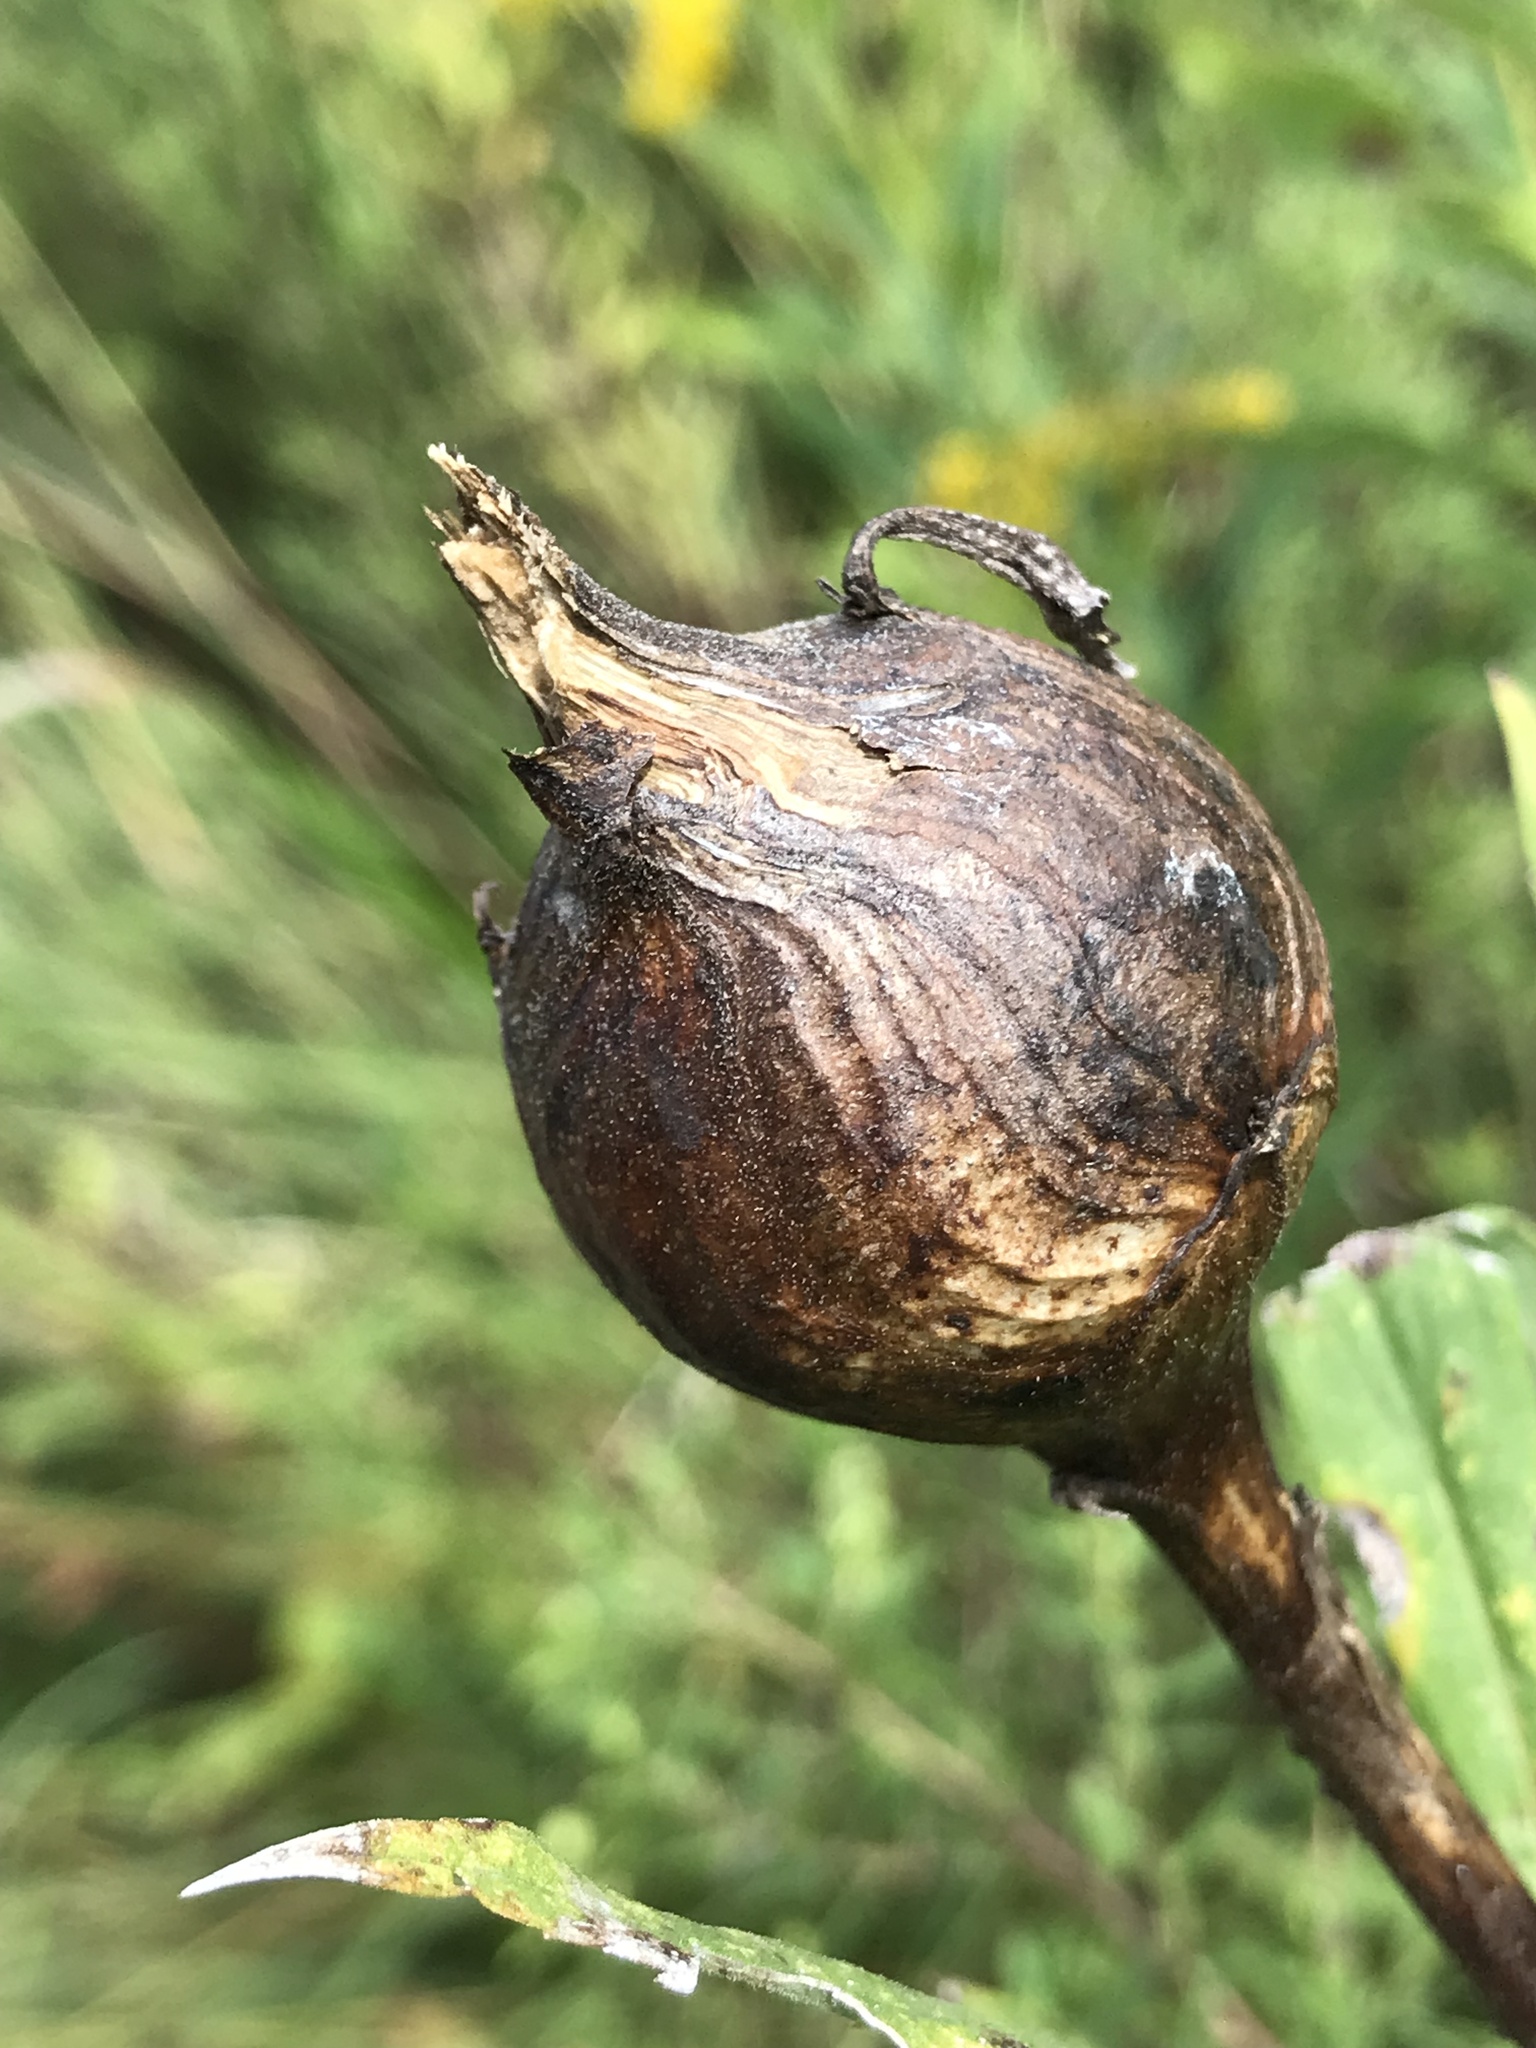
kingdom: Animalia
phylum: Arthropoda
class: Insecta
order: Diptera
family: Tephritidae
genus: Eurosta
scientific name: Eurosta solidaginis
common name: Goldenrod gall fly
